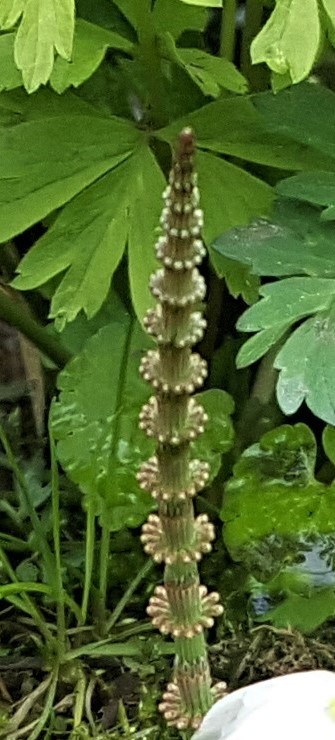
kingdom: Plantae
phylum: Tracheophyta
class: Polypodiopsida
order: Equisetales
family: Equisetaceae
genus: Equisetum
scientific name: Equisetum pratense
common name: Meadow horsetail
